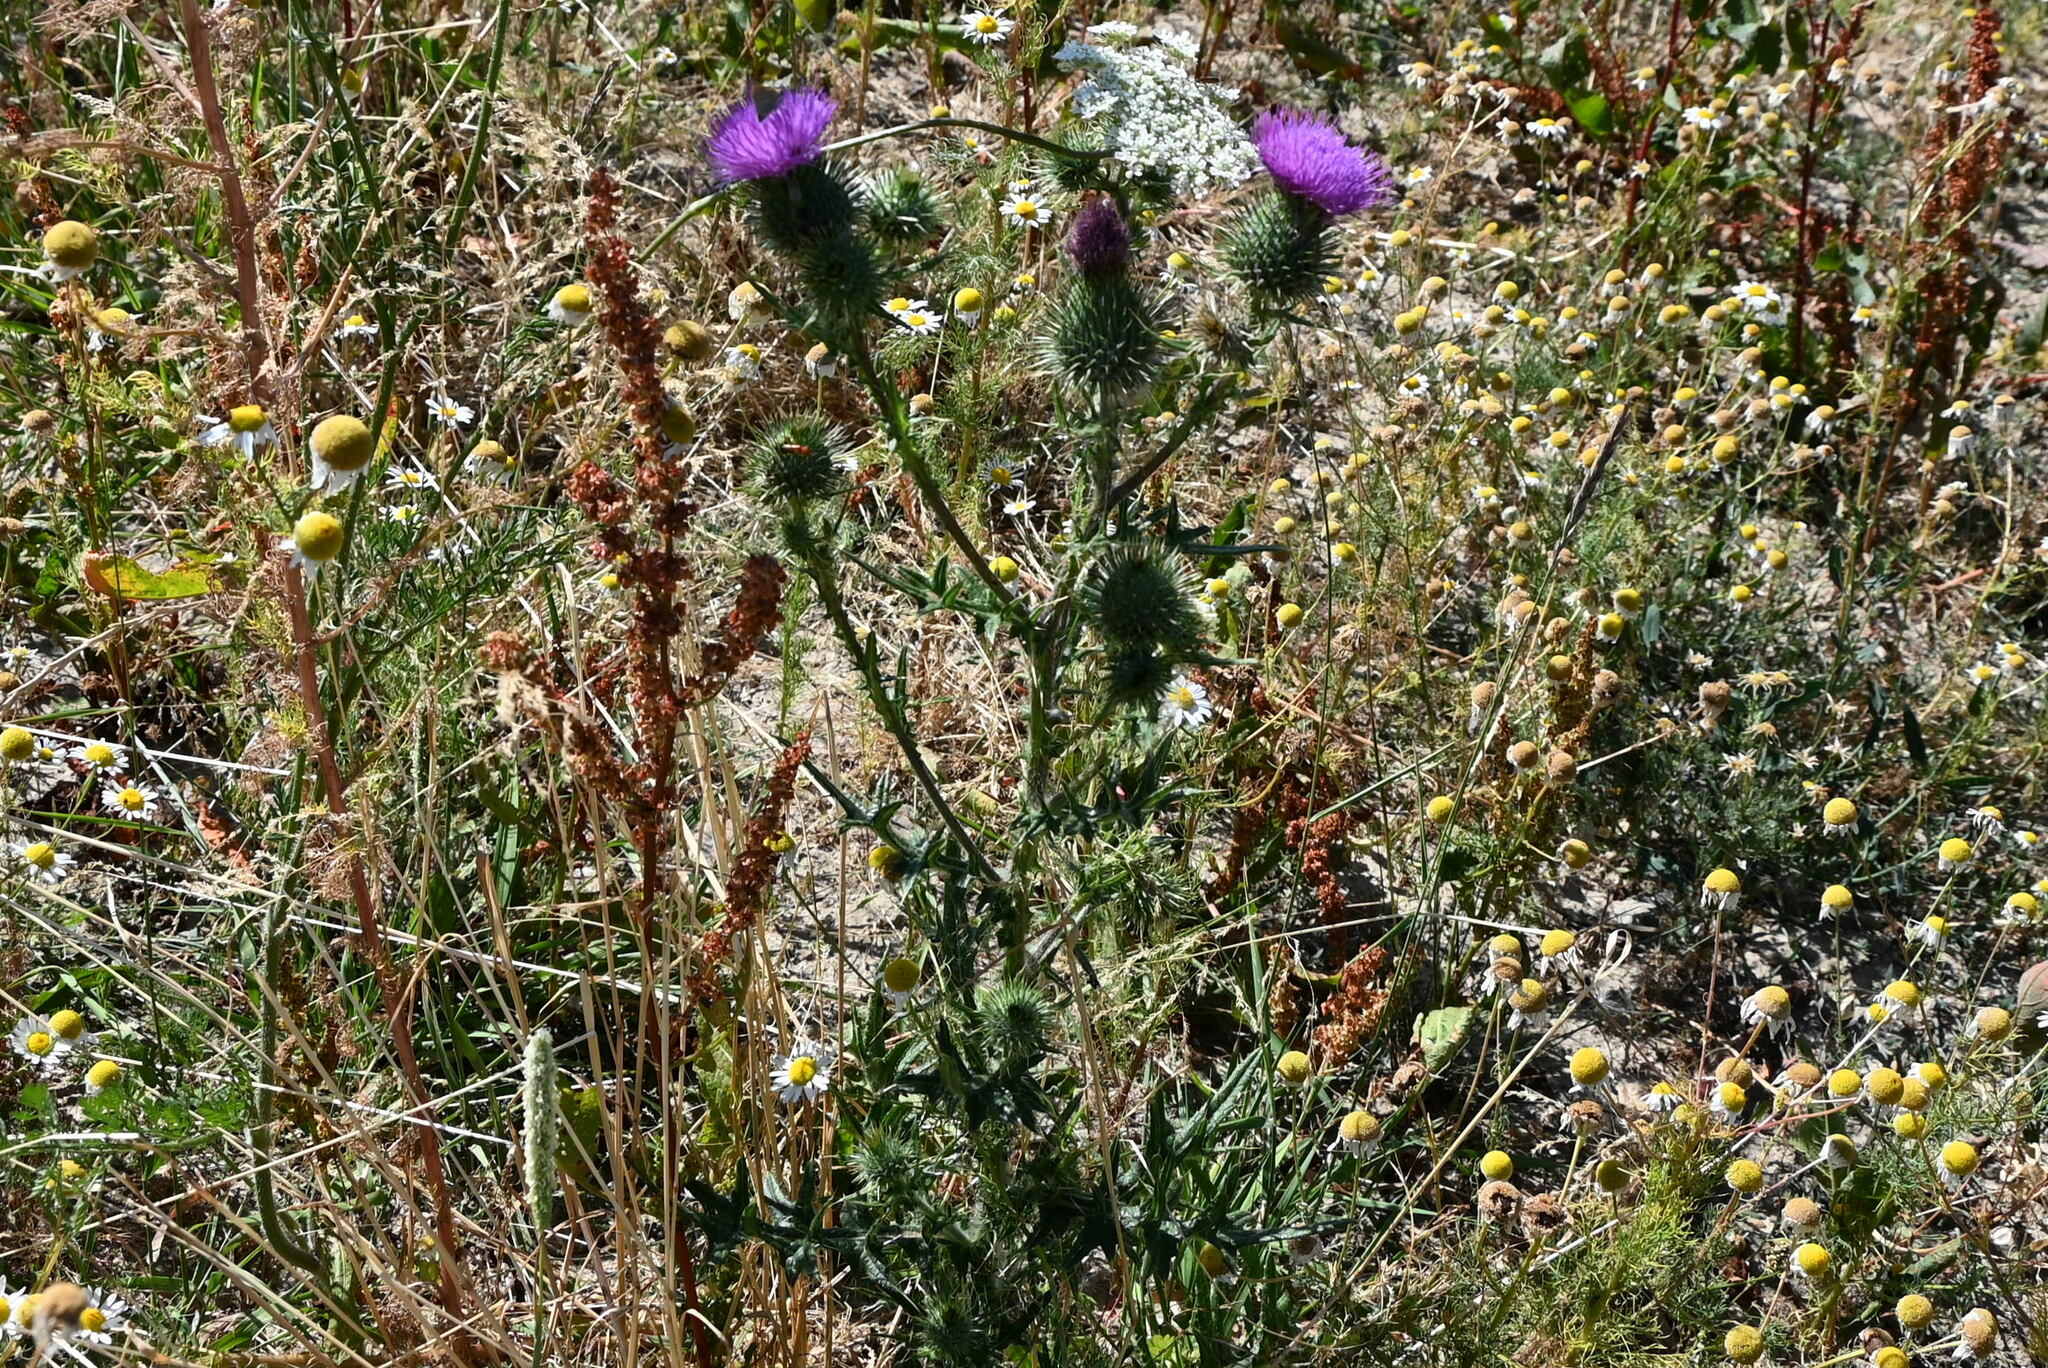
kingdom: Plantae
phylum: Tracheophyta
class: Magnoliopsida
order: Asterales
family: Asteraceae
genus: Cirsium
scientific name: Cirsium vulgare
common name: Bull thistle
